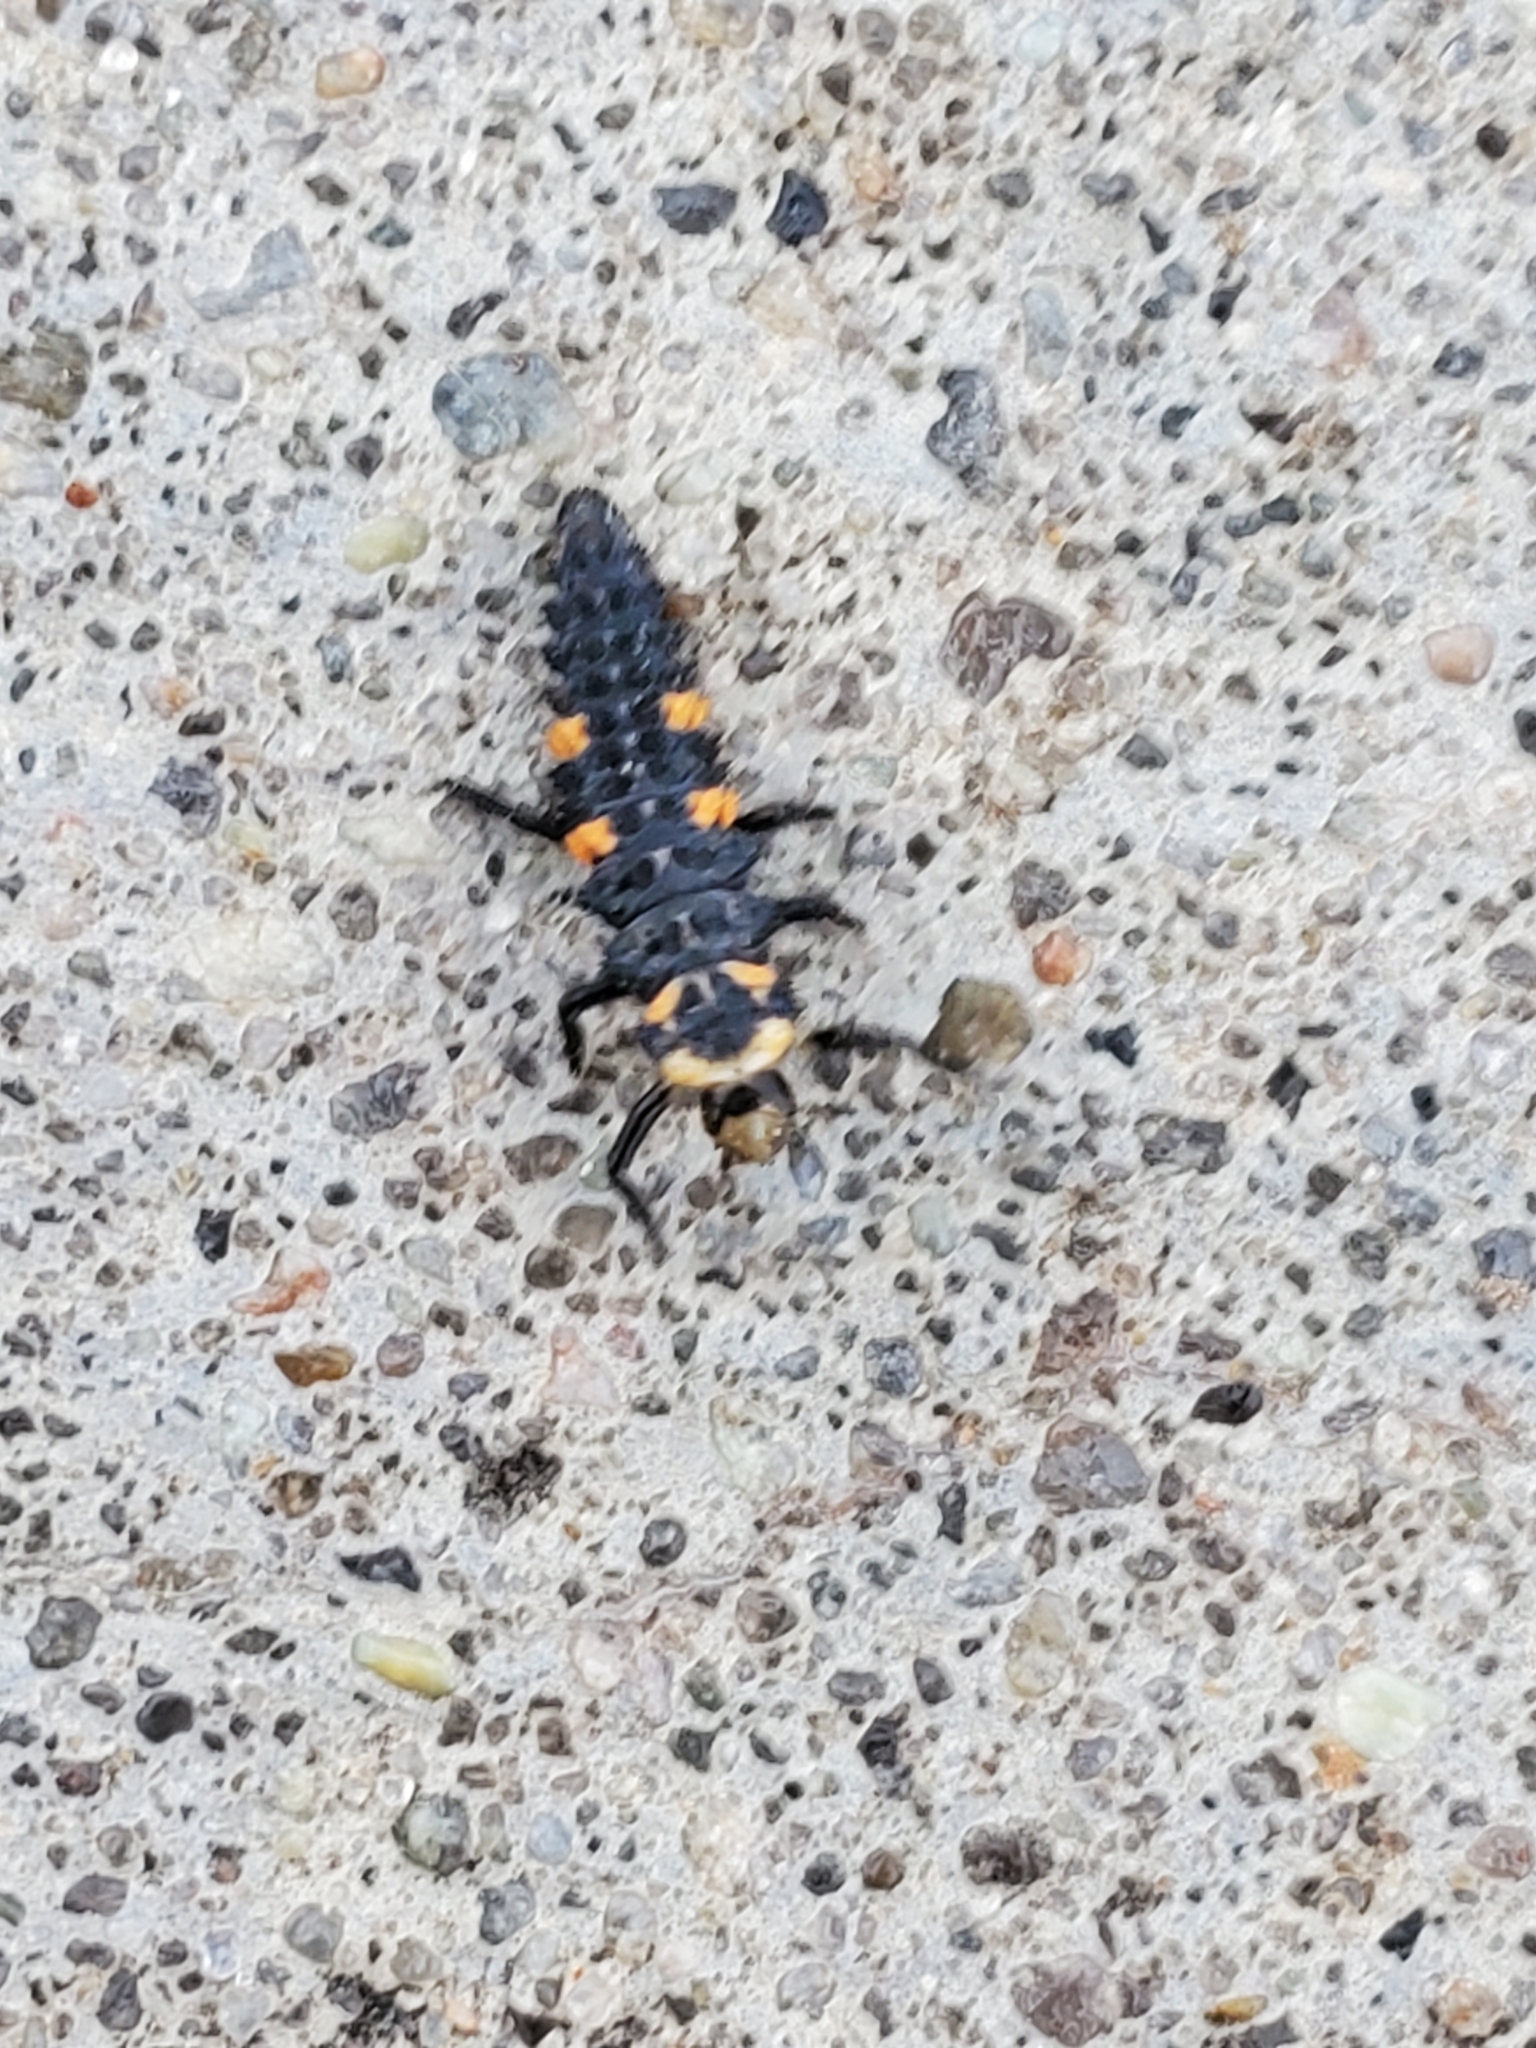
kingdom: Animalia
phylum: Arthropoda
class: Insecta
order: Coleoptera
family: Coccinellidae
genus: Coccinella
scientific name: Coccinella septempunctata
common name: Sevenspotted lady beetle
